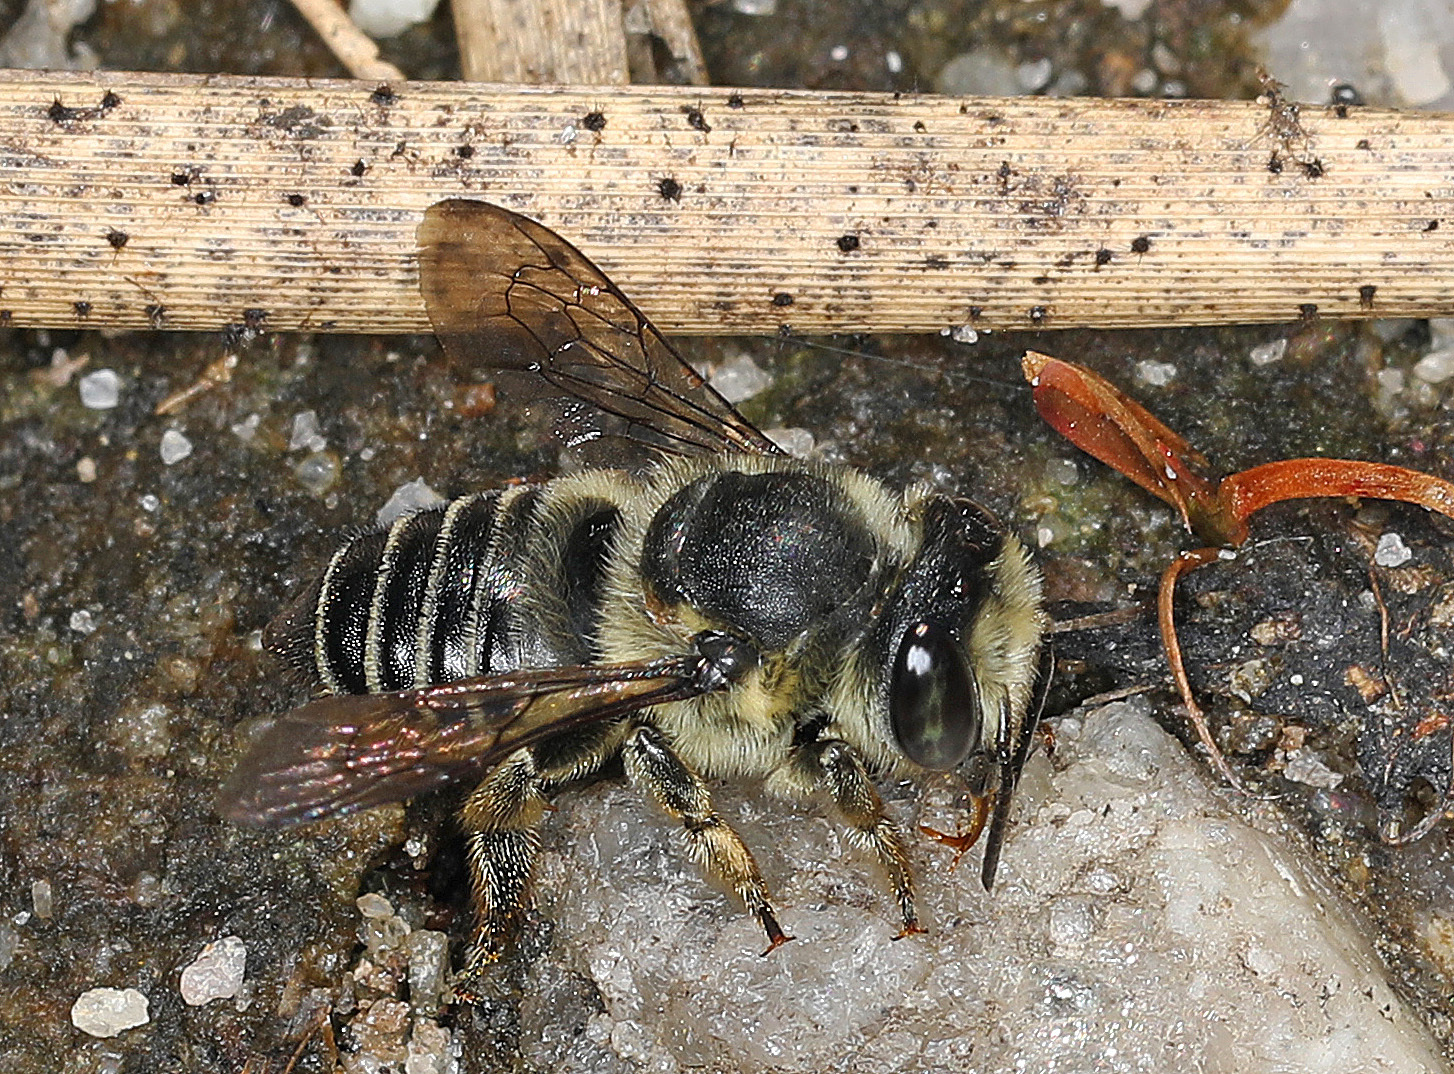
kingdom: Animalia
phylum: Arthropoda
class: Insecta
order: Hymenoptera
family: Megachilidae
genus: Megachile
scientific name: Megachile mendica
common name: Flat-tailed leafcutter
